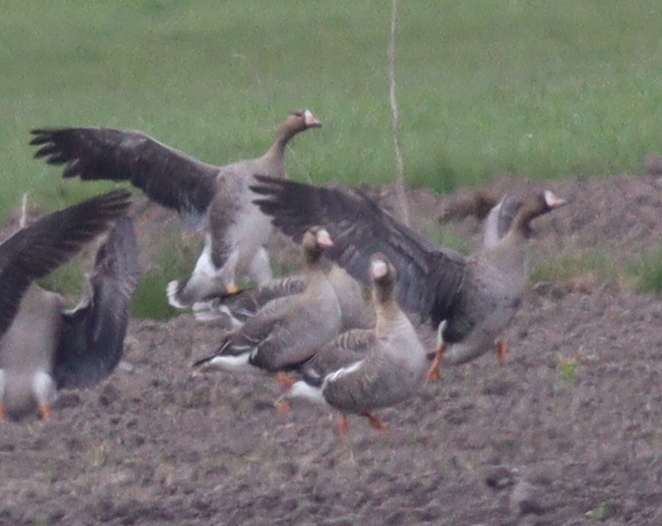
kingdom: Animalia
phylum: Chordata
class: Aves
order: Anseriformes
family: Anatidae
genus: Anser
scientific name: Anser albifrons
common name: Greater white-fronted goose
